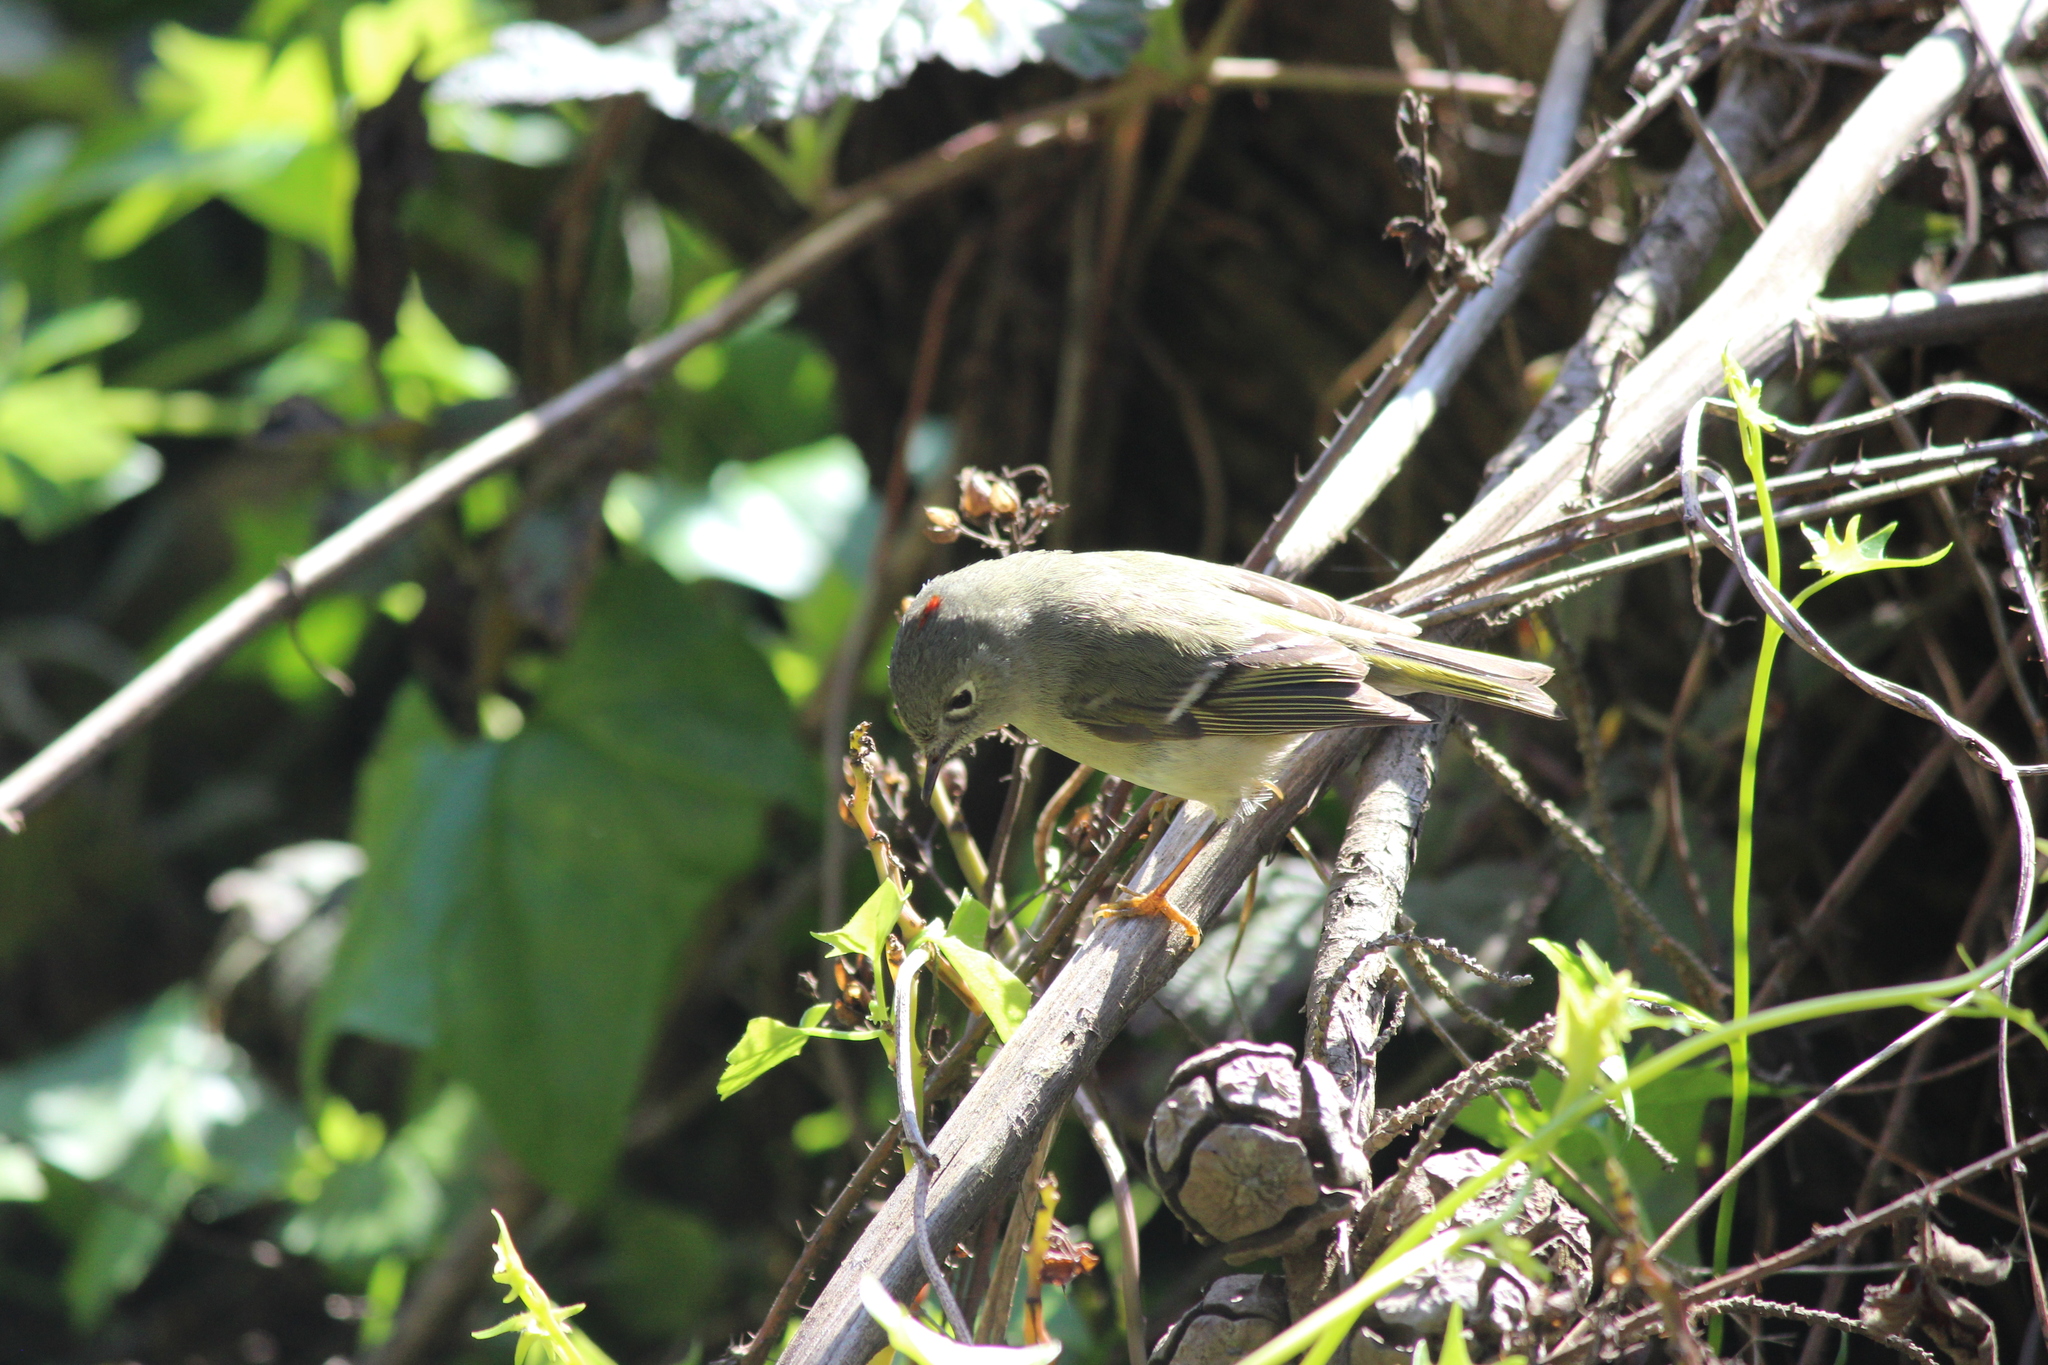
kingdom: Animalia
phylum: Chordata
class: Aves
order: Passeriformes
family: Regulidae
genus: Regulus
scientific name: Regulus calendula
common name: Ruby-crowned kinglet
